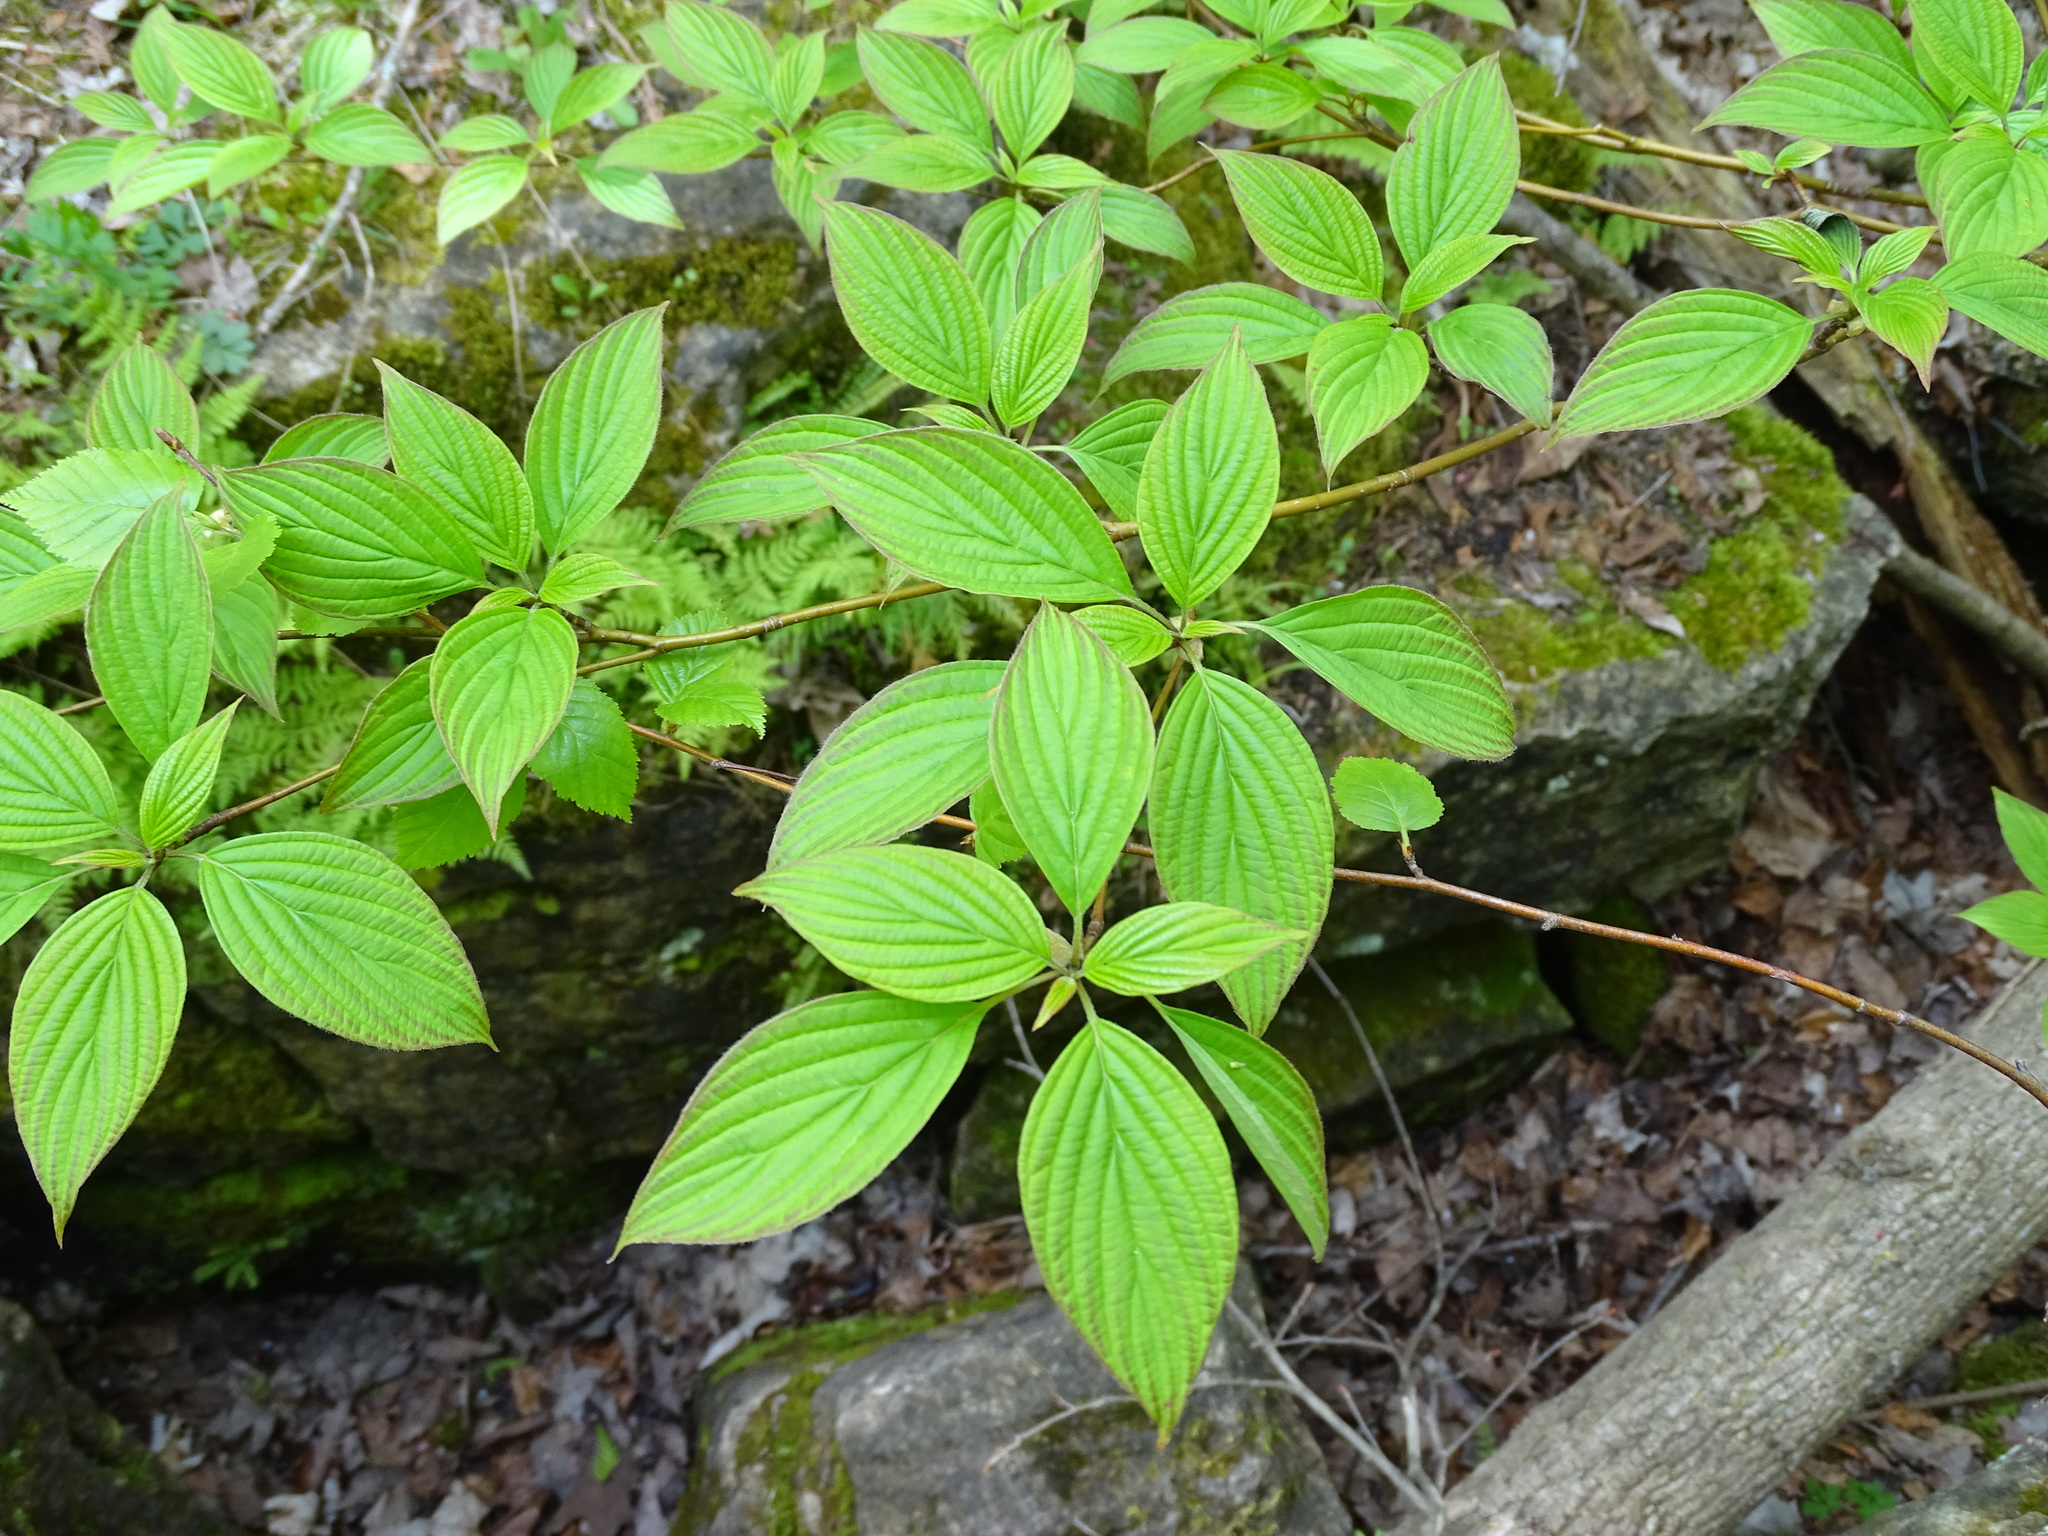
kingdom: Plantae
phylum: Tracheophyta
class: Magnoliopsida
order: Cornales
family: Cornaceae
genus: Cornus
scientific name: Cornus alternifolia
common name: Pagoda dogwood
